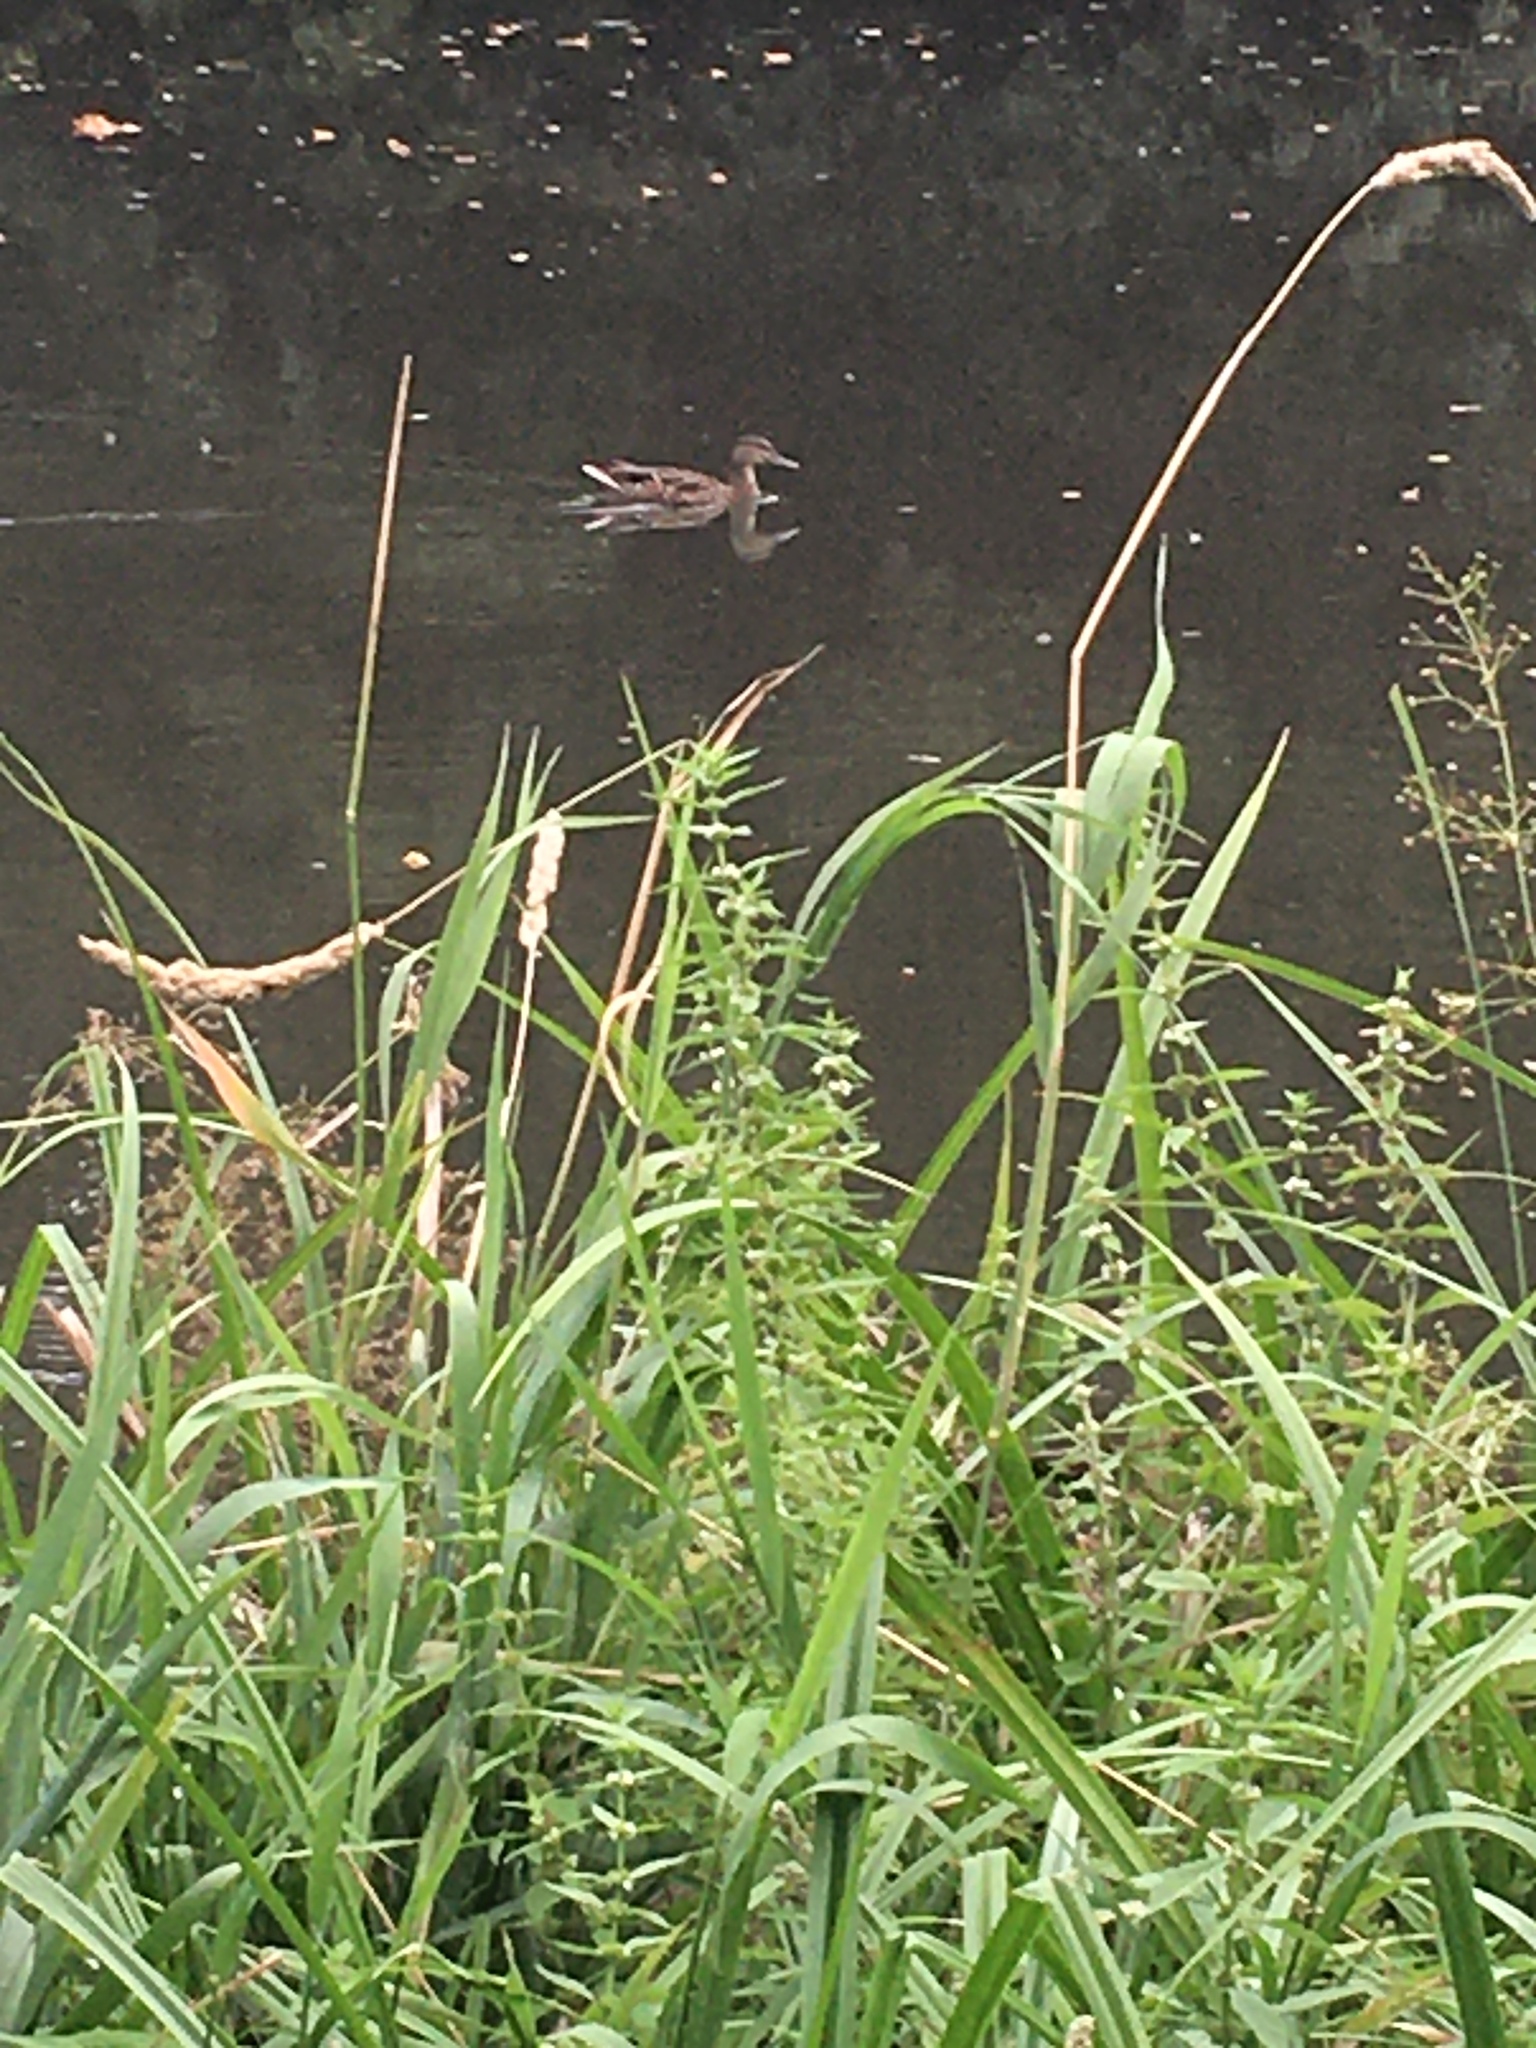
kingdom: Animalia
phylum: Chordata
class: Aves
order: Anseriformes
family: Anatidae
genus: Anas
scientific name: Anas platyrhynchos
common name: Mallard
